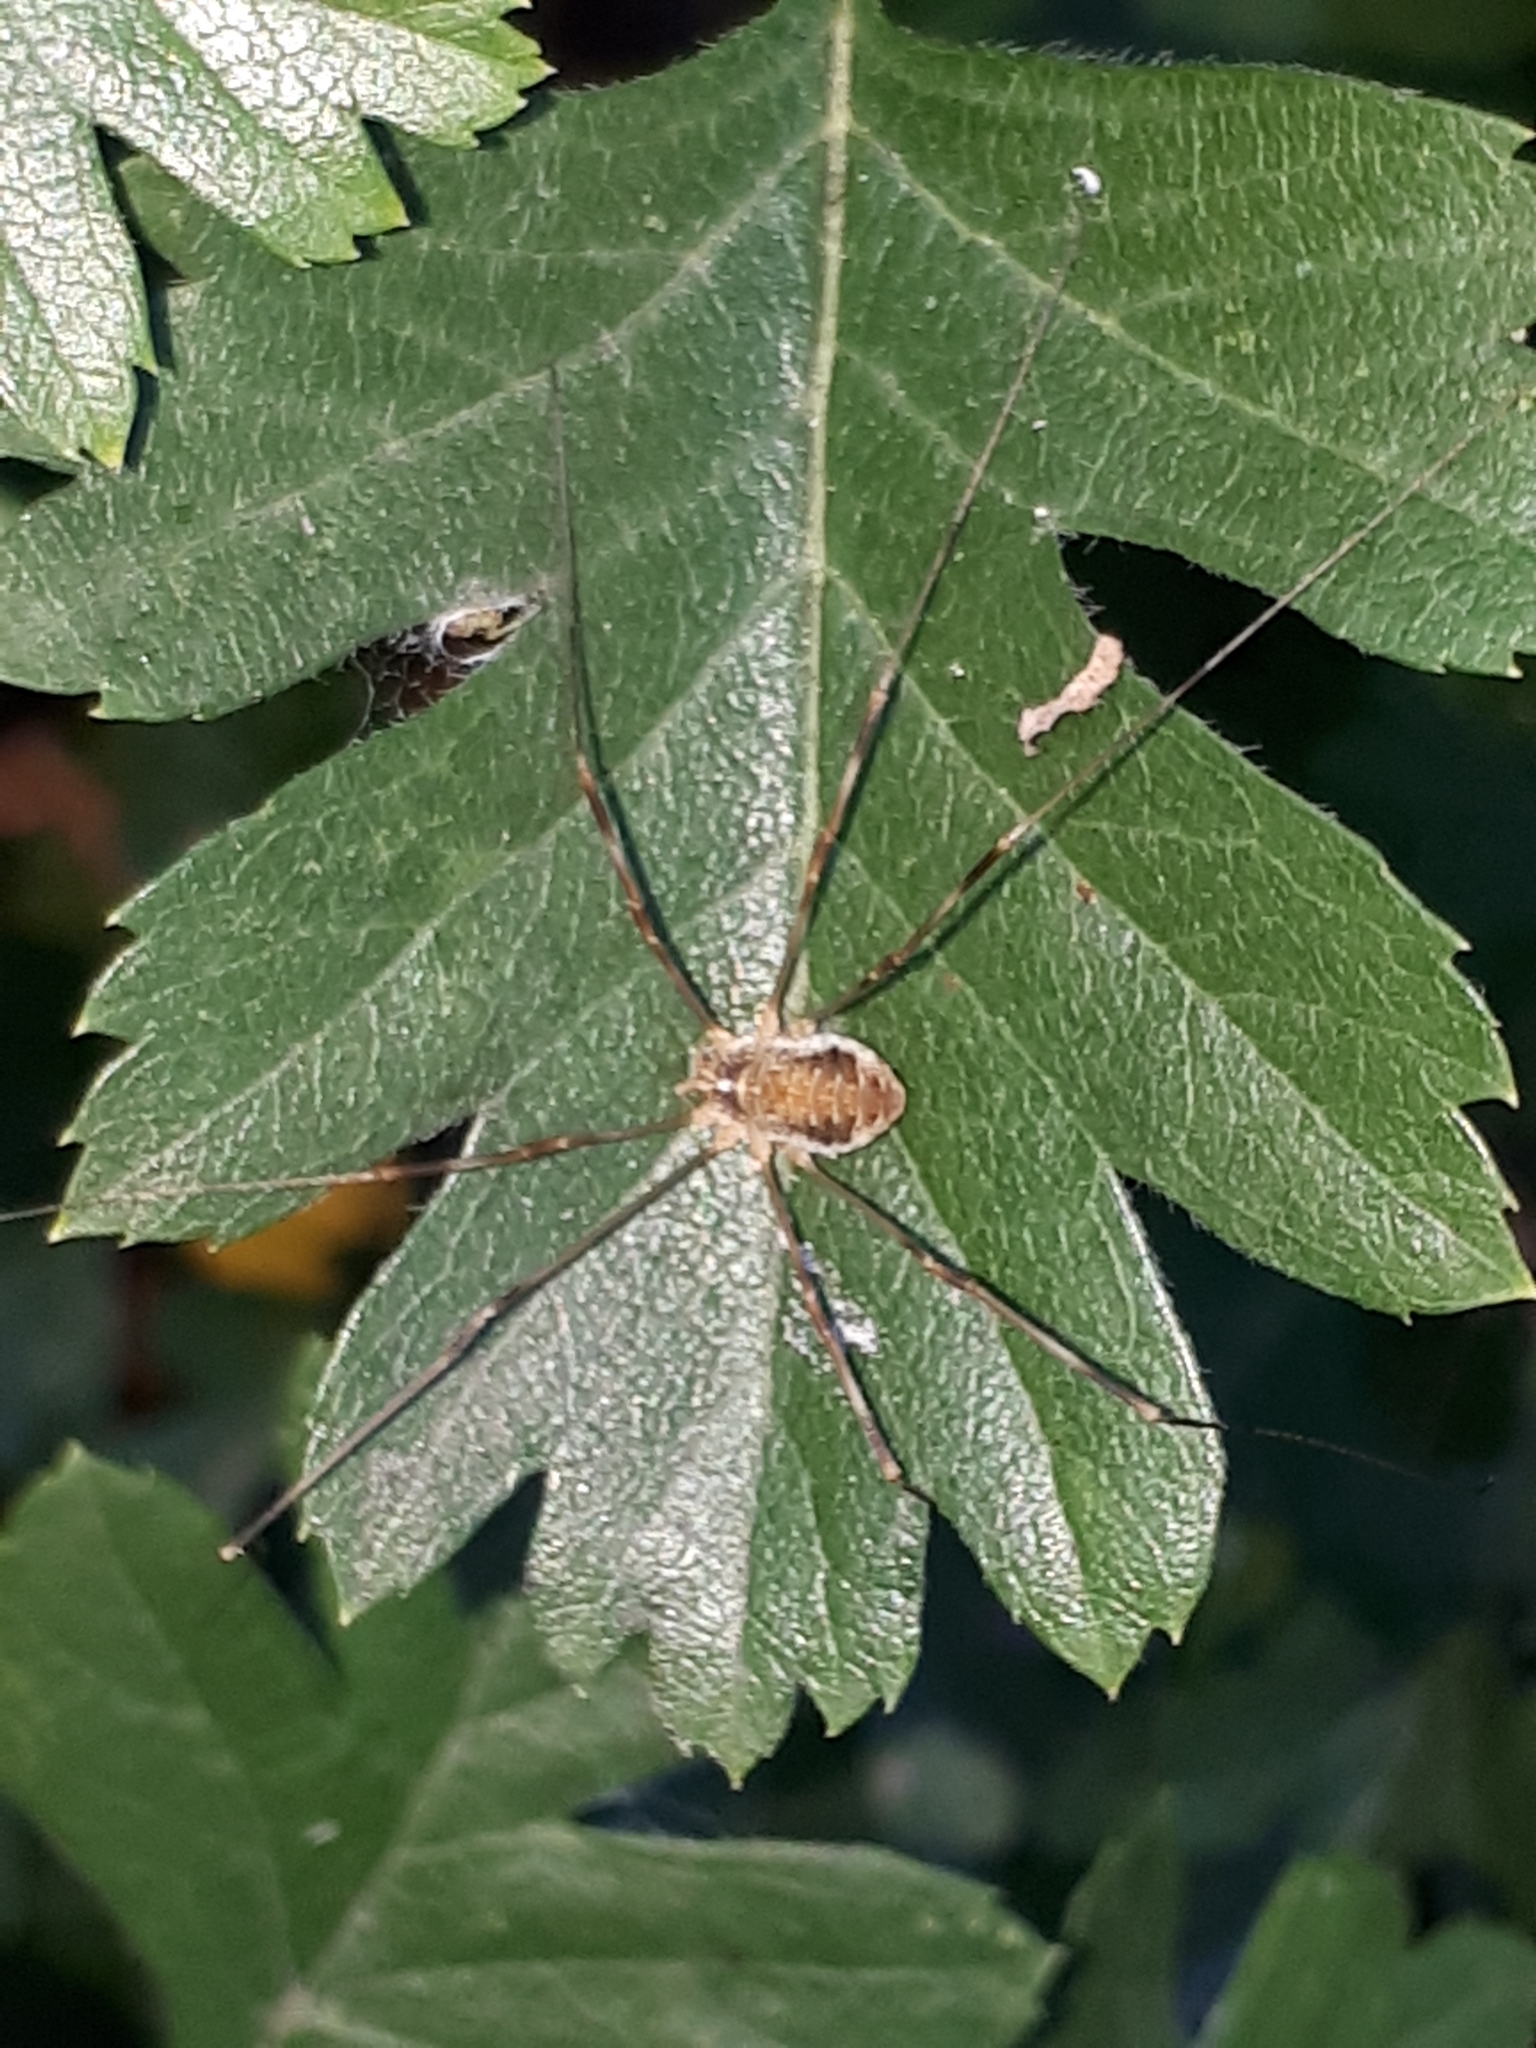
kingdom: Animalia
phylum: Arthropoda
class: Arachnida
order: Opiliones
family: Phalangiidae
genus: Opilio
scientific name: Opilio canestrinii
